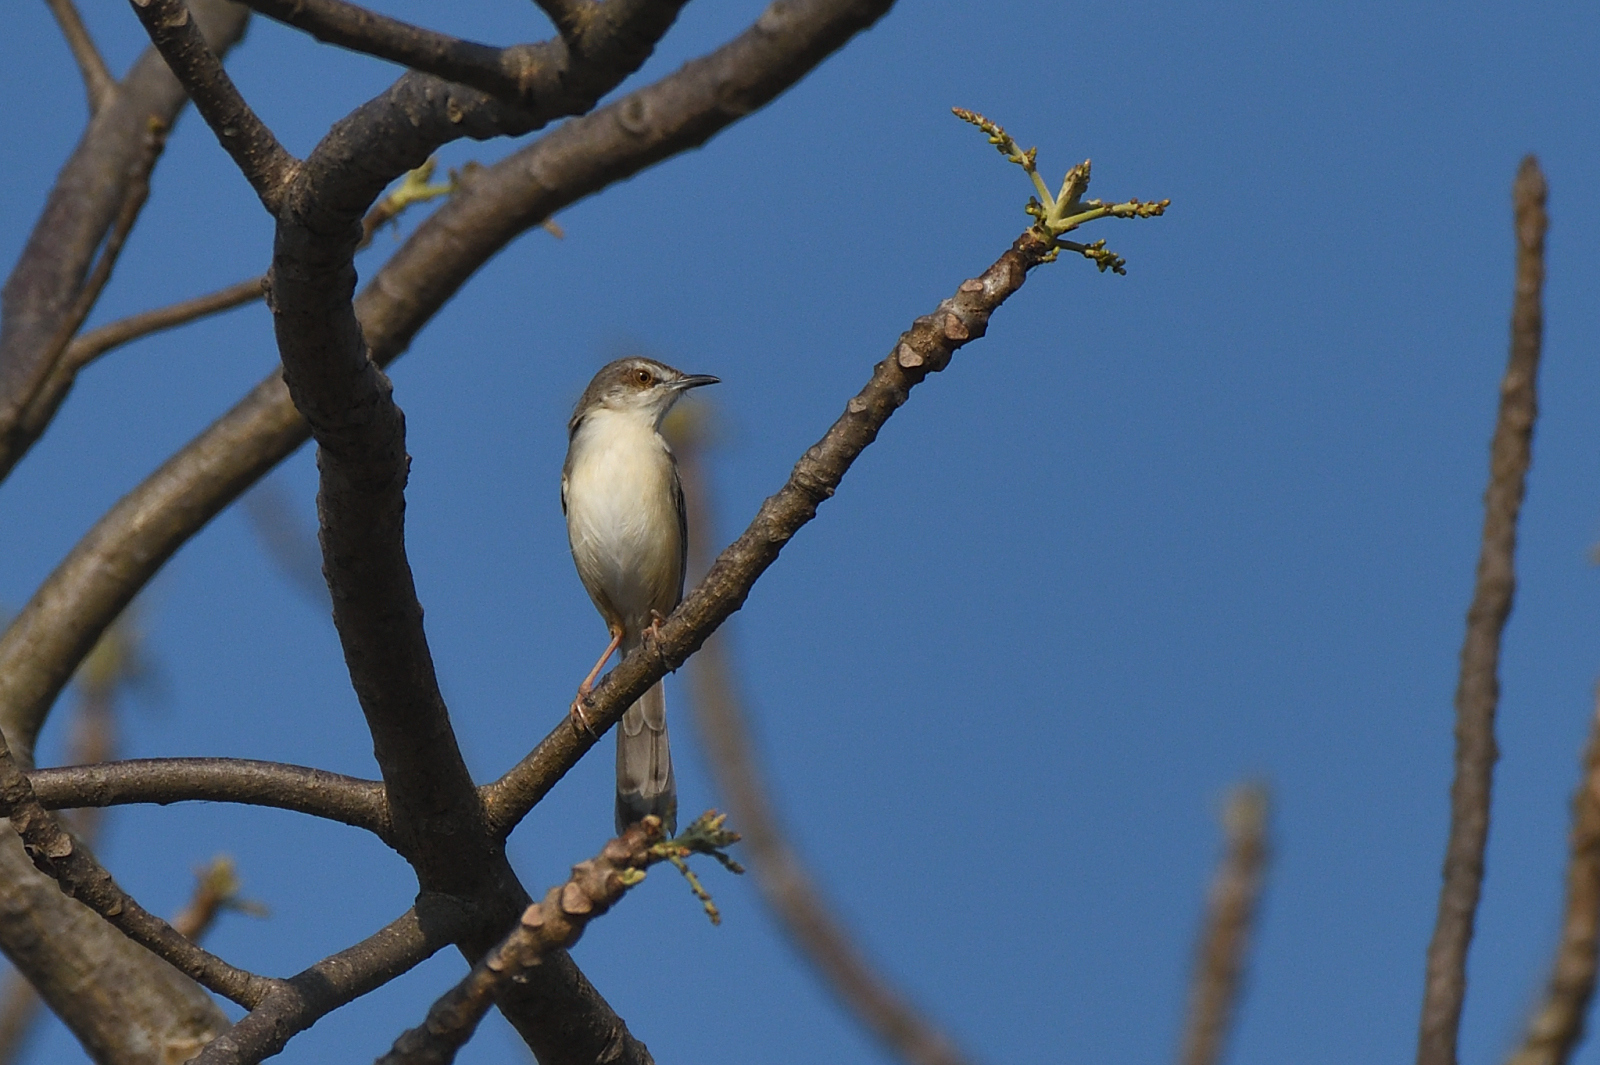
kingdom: Animalia
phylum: Chordata
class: Aves
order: Passeriformes
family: Cisticolidae
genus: Prinia
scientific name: Prinia inornata
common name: Plain prinia
